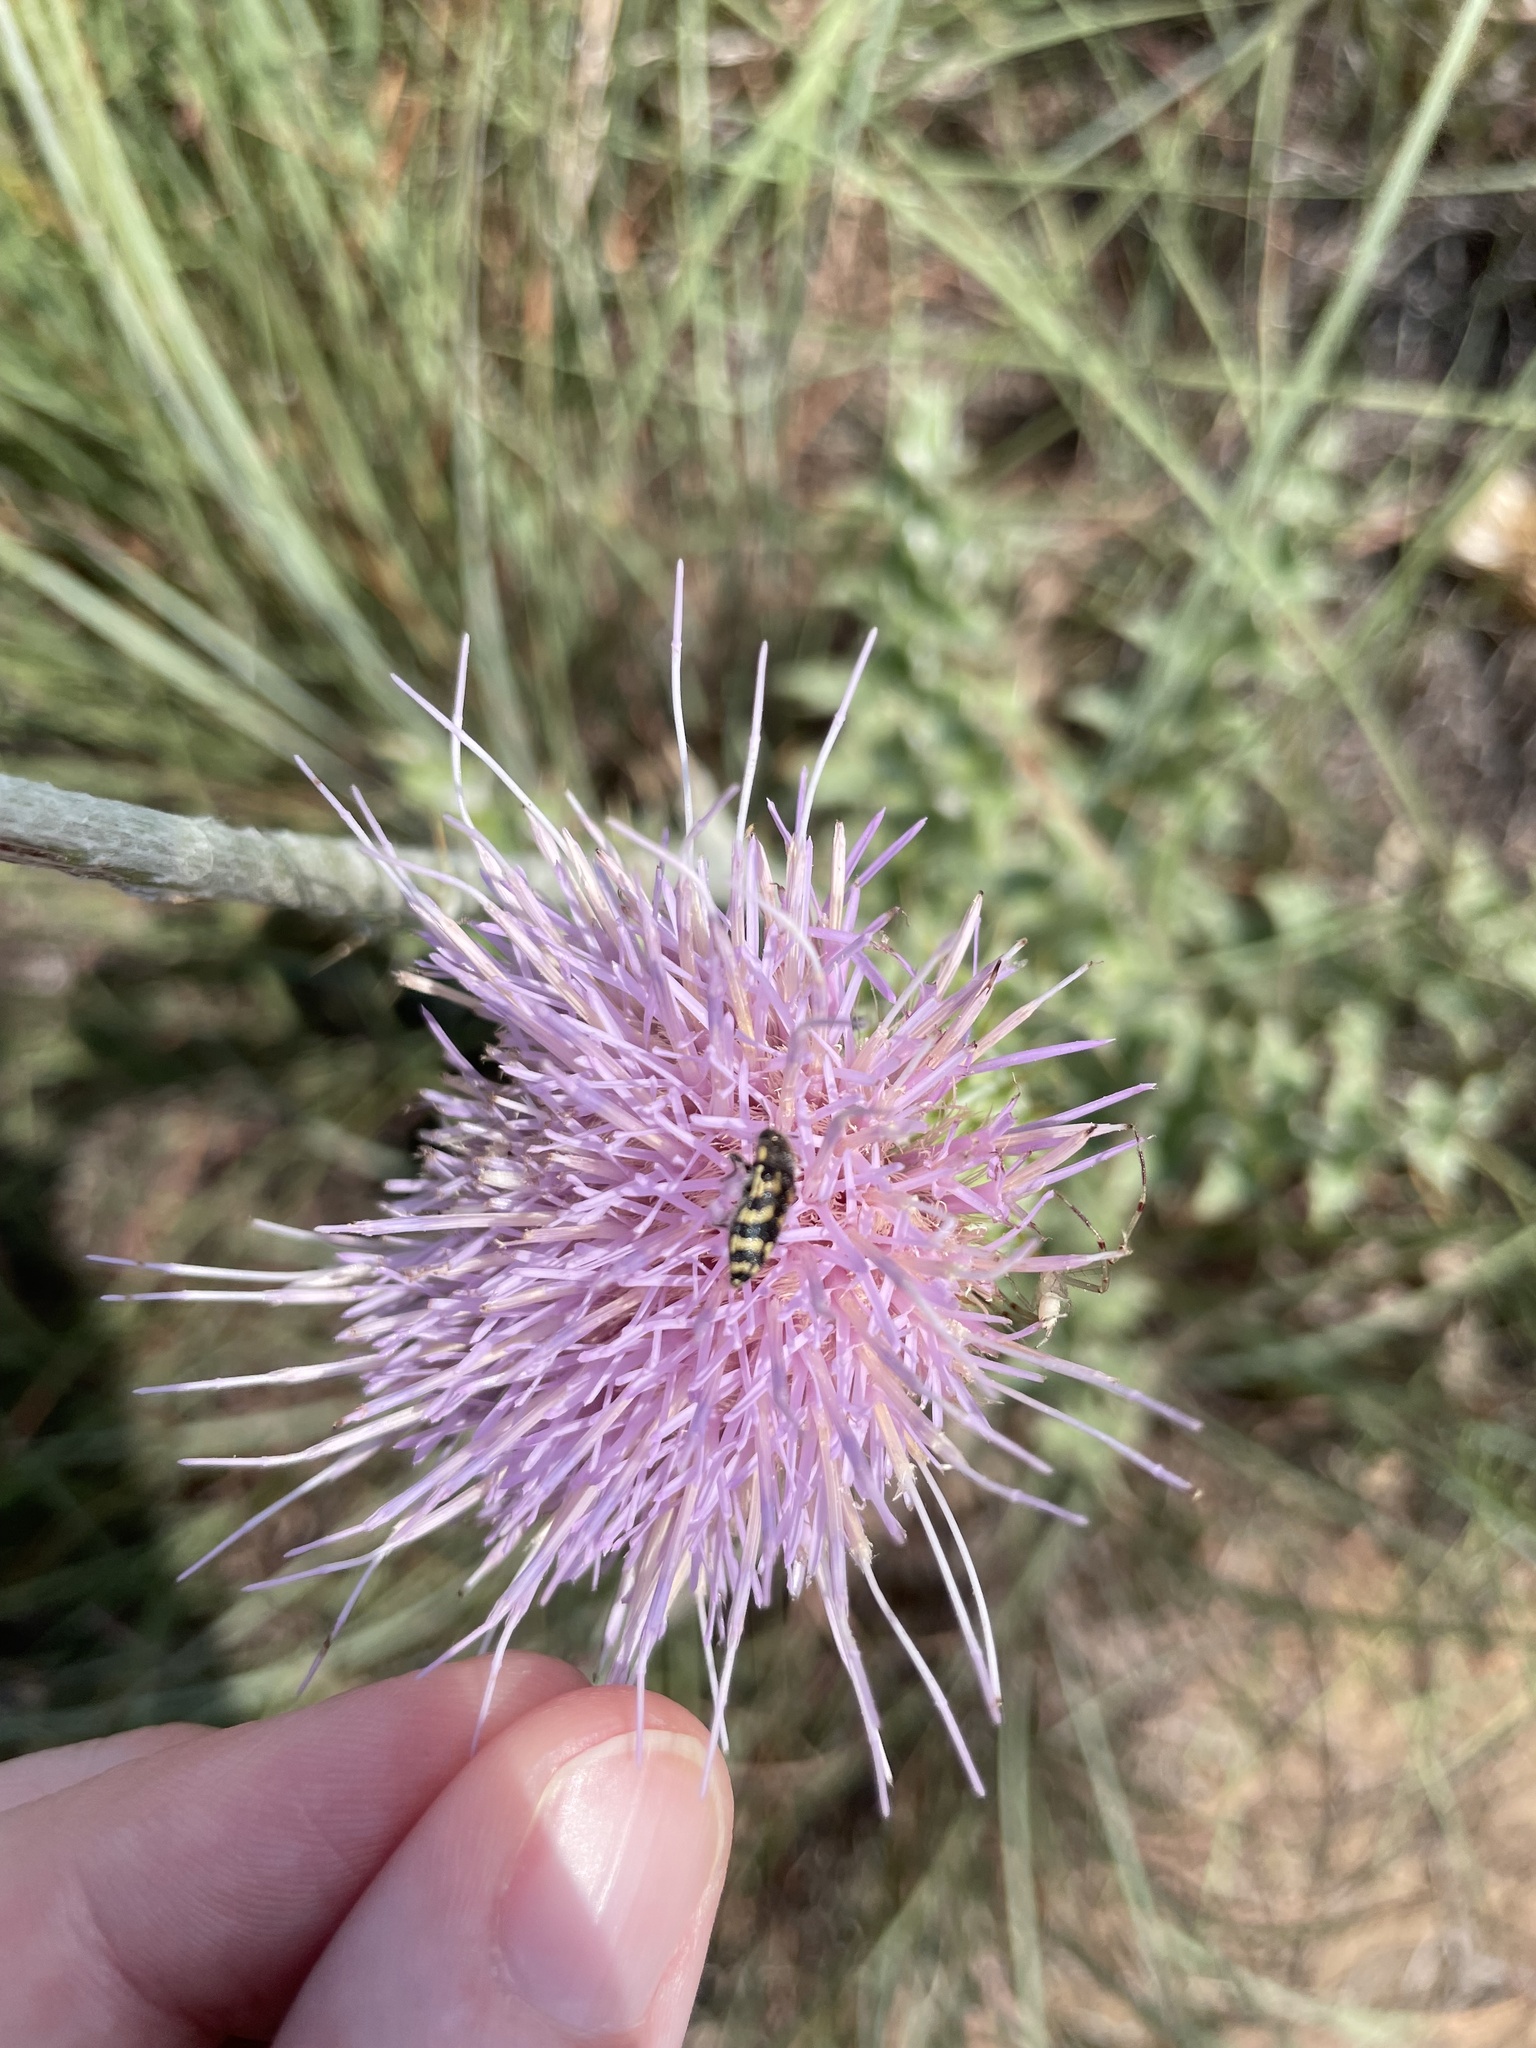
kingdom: Animalia
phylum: Arthropoda
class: Insecta
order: Coleoptera
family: Buprestidae
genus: Acmaeodera
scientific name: Acmaeodera mixta
